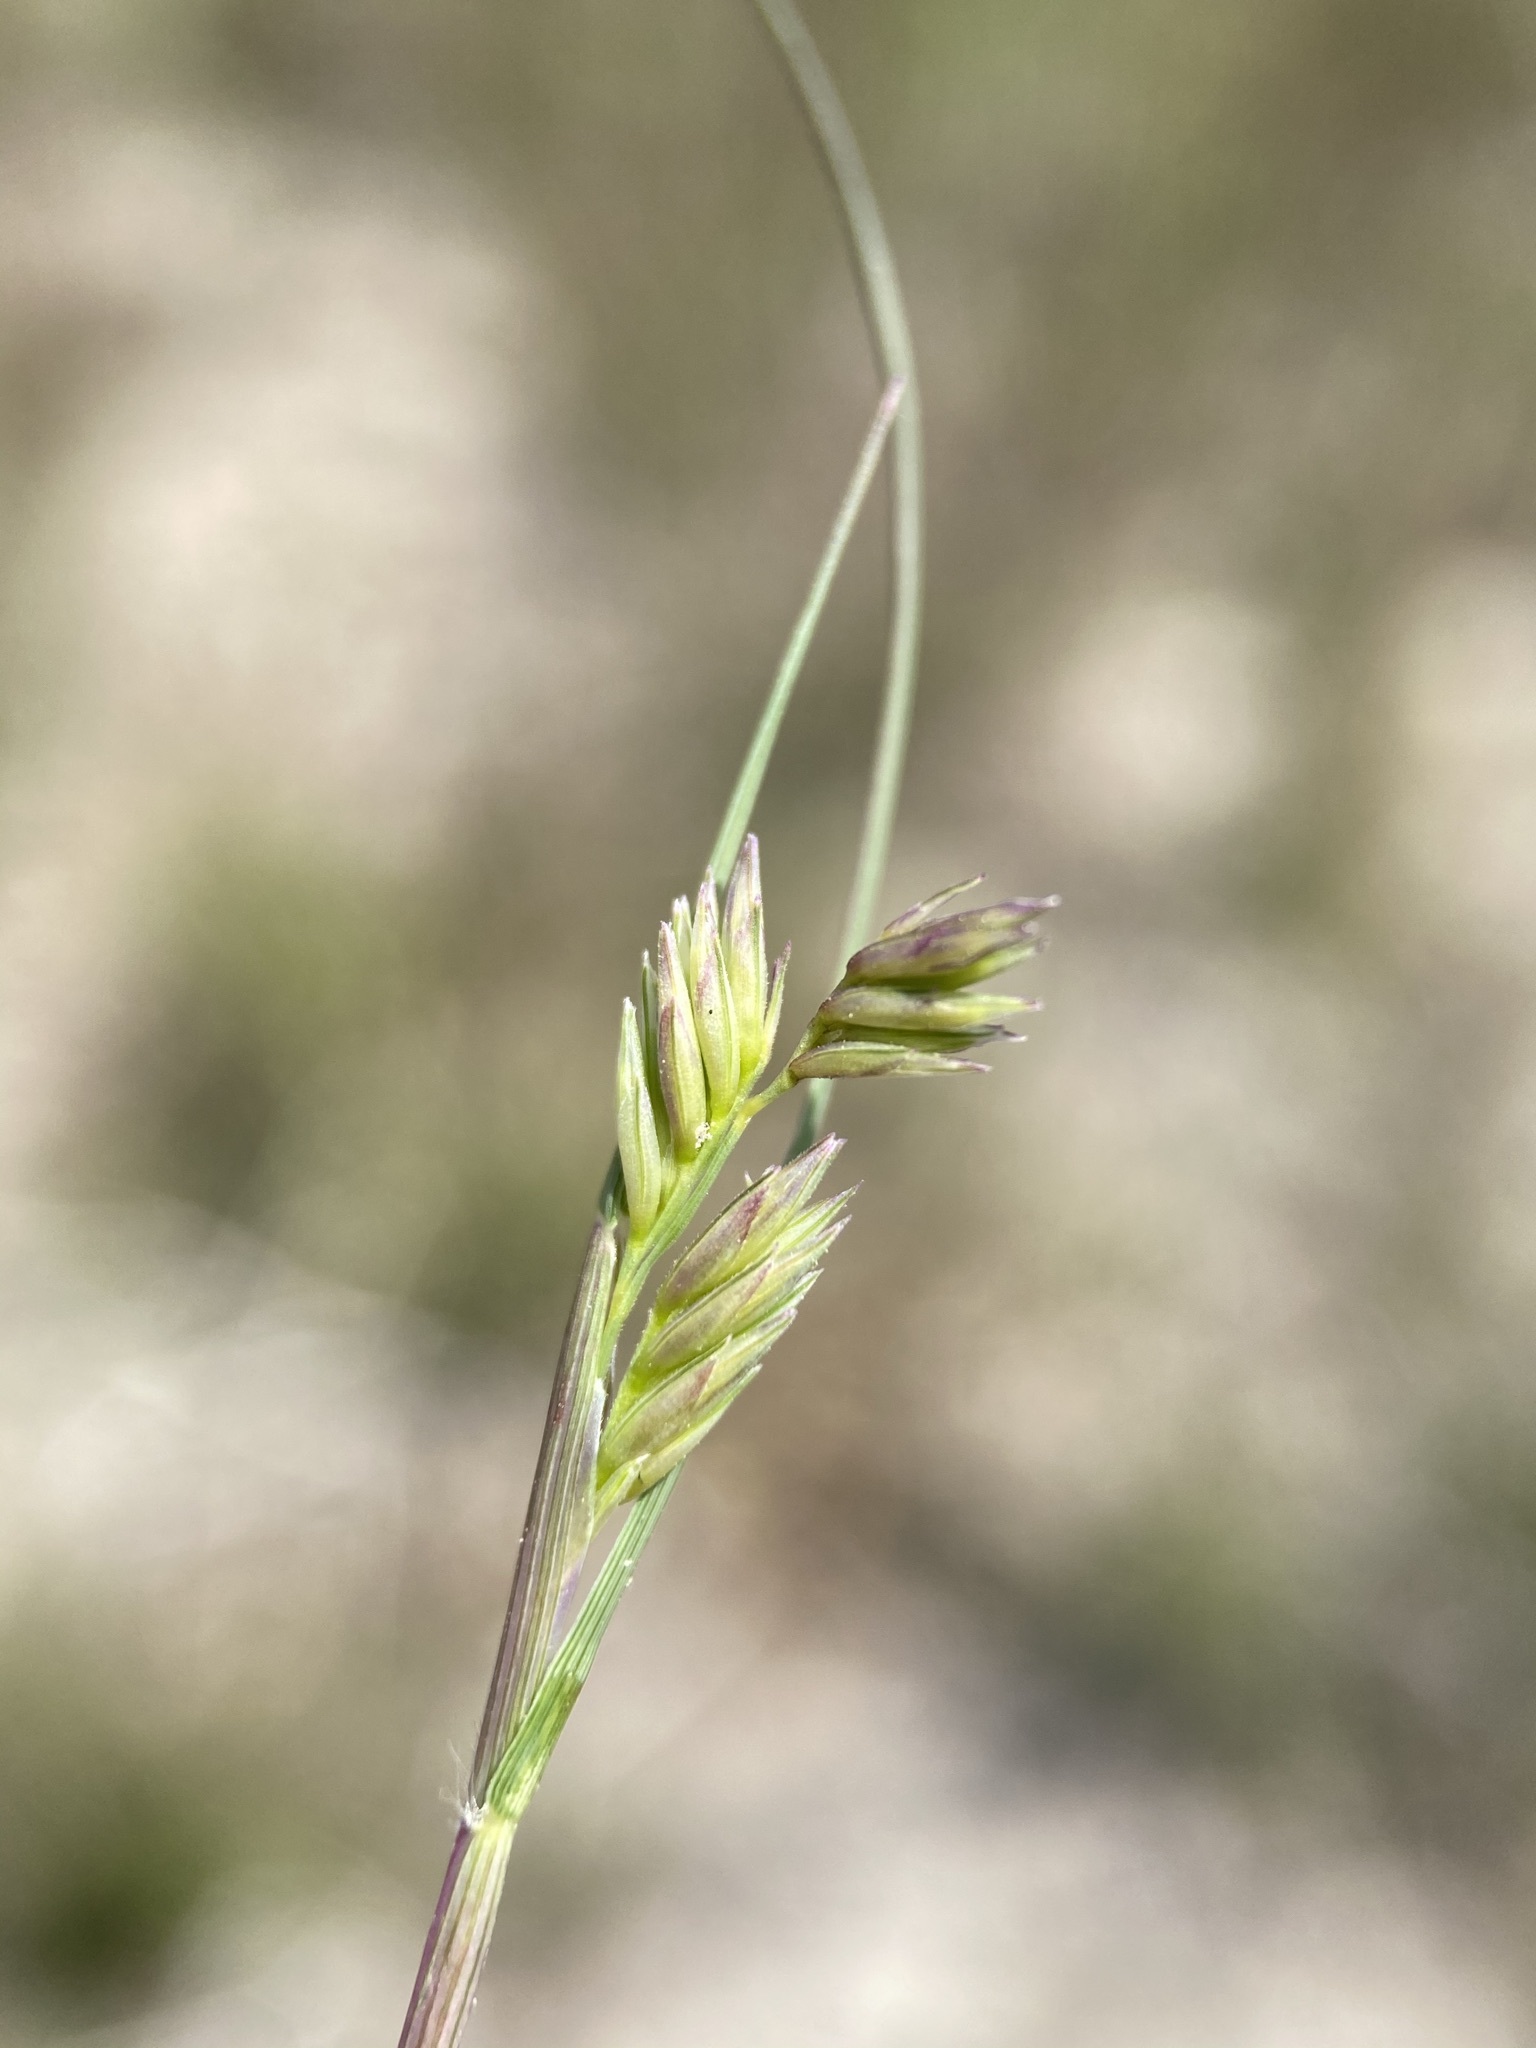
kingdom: Plantae
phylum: Tracheophyta
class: Liliopsida
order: Poales
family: Poaceae
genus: Bouteloua
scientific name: Bouteloua dactyloides
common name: Buffalo grass
